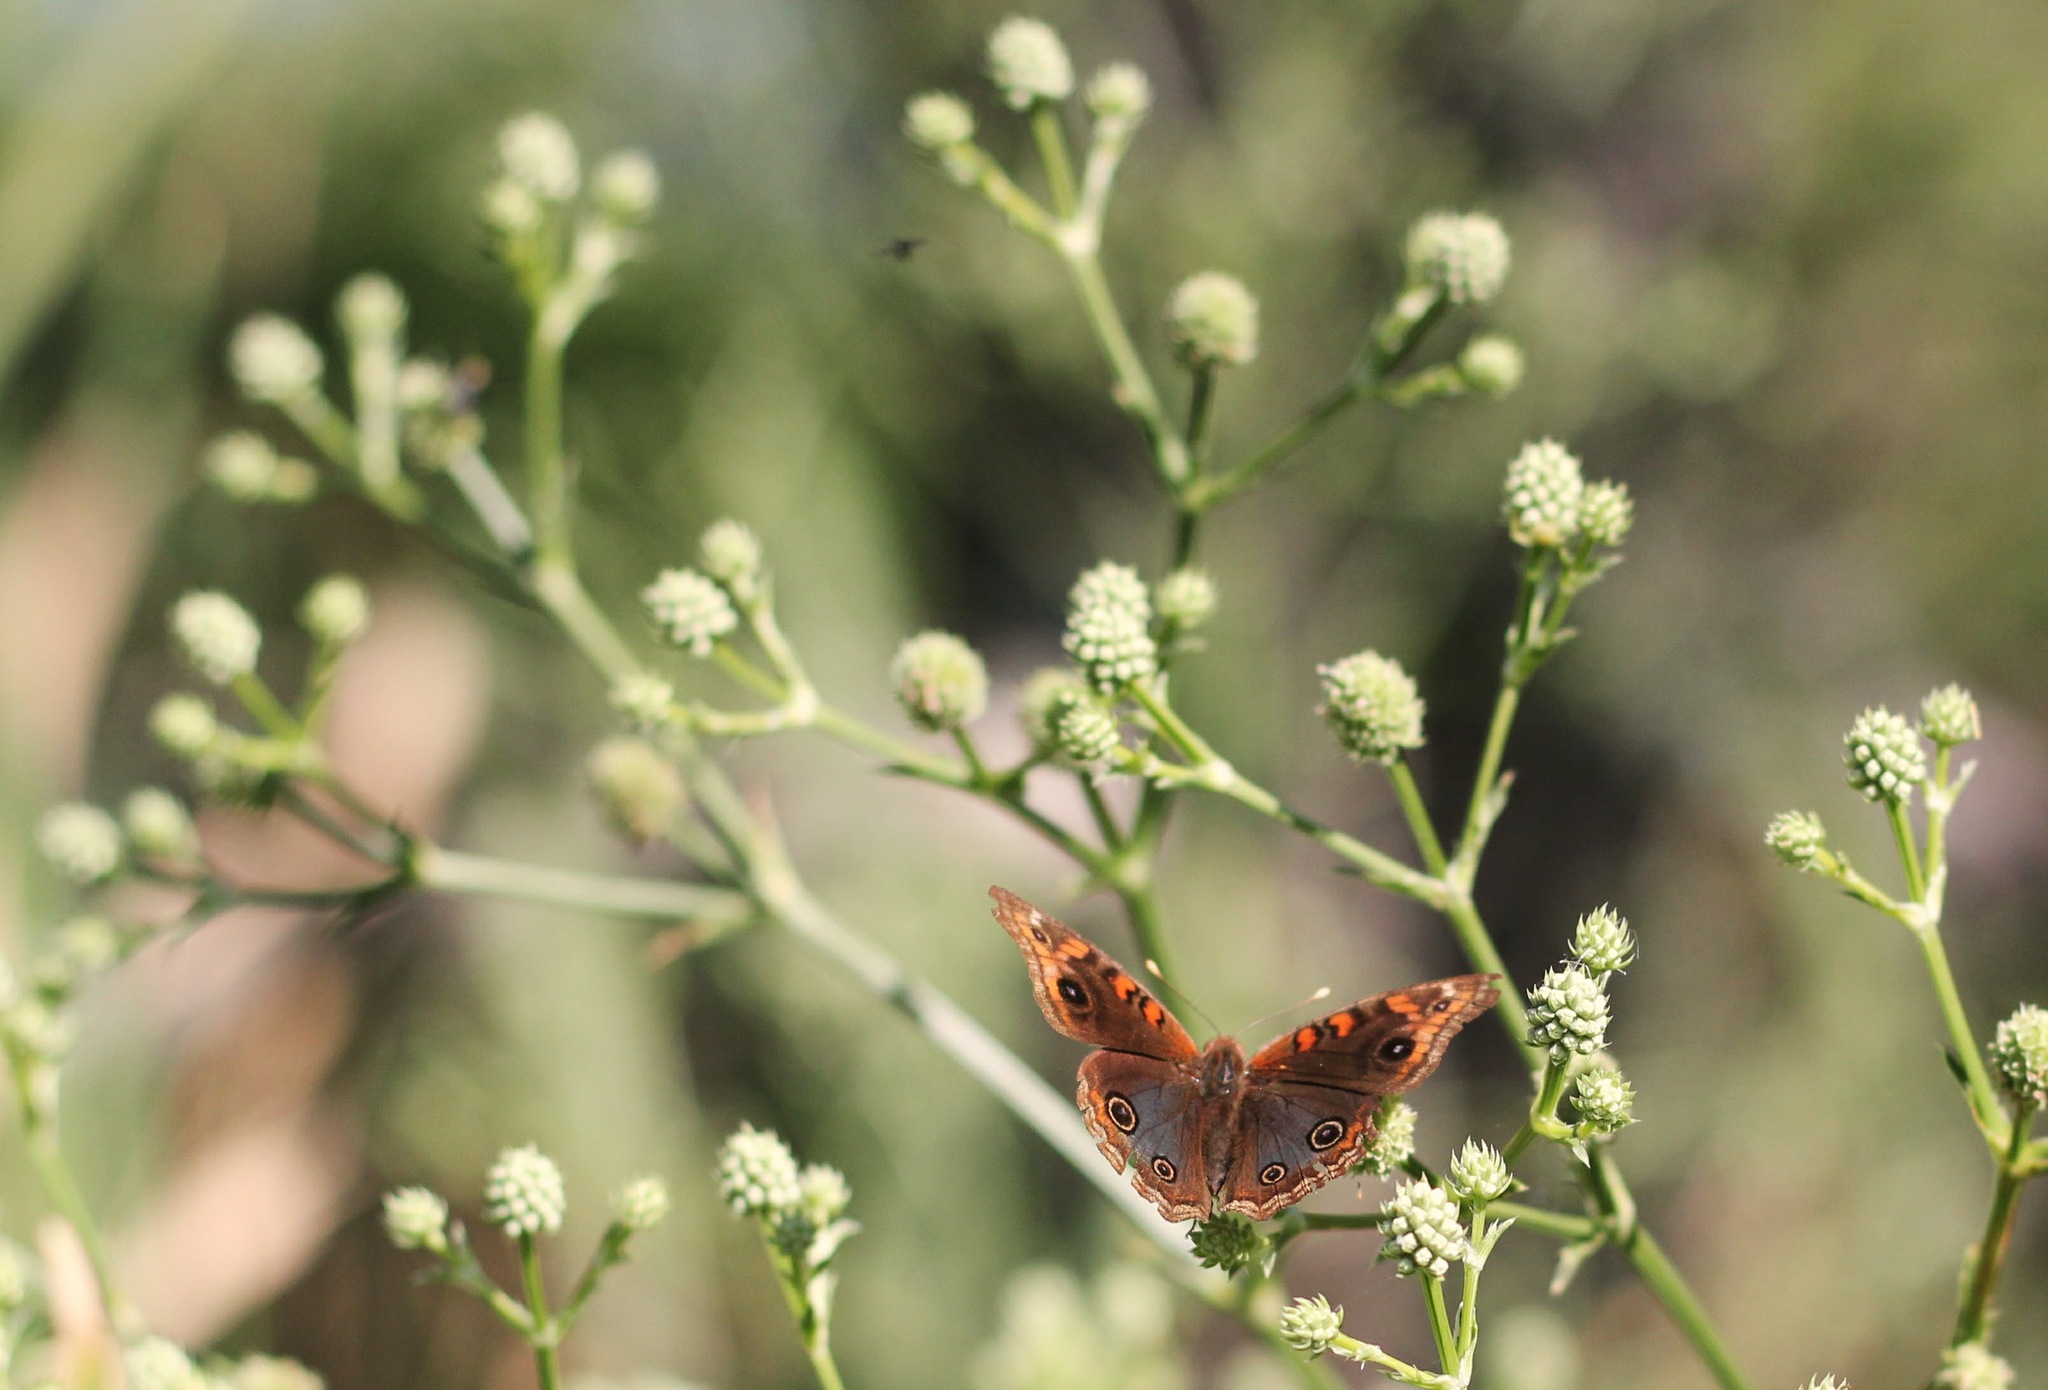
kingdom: Animalia
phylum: Arthropoda
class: Insecta
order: Lepidoptera
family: Nymphalidae
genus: Junonia
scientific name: Junonia lavinia
